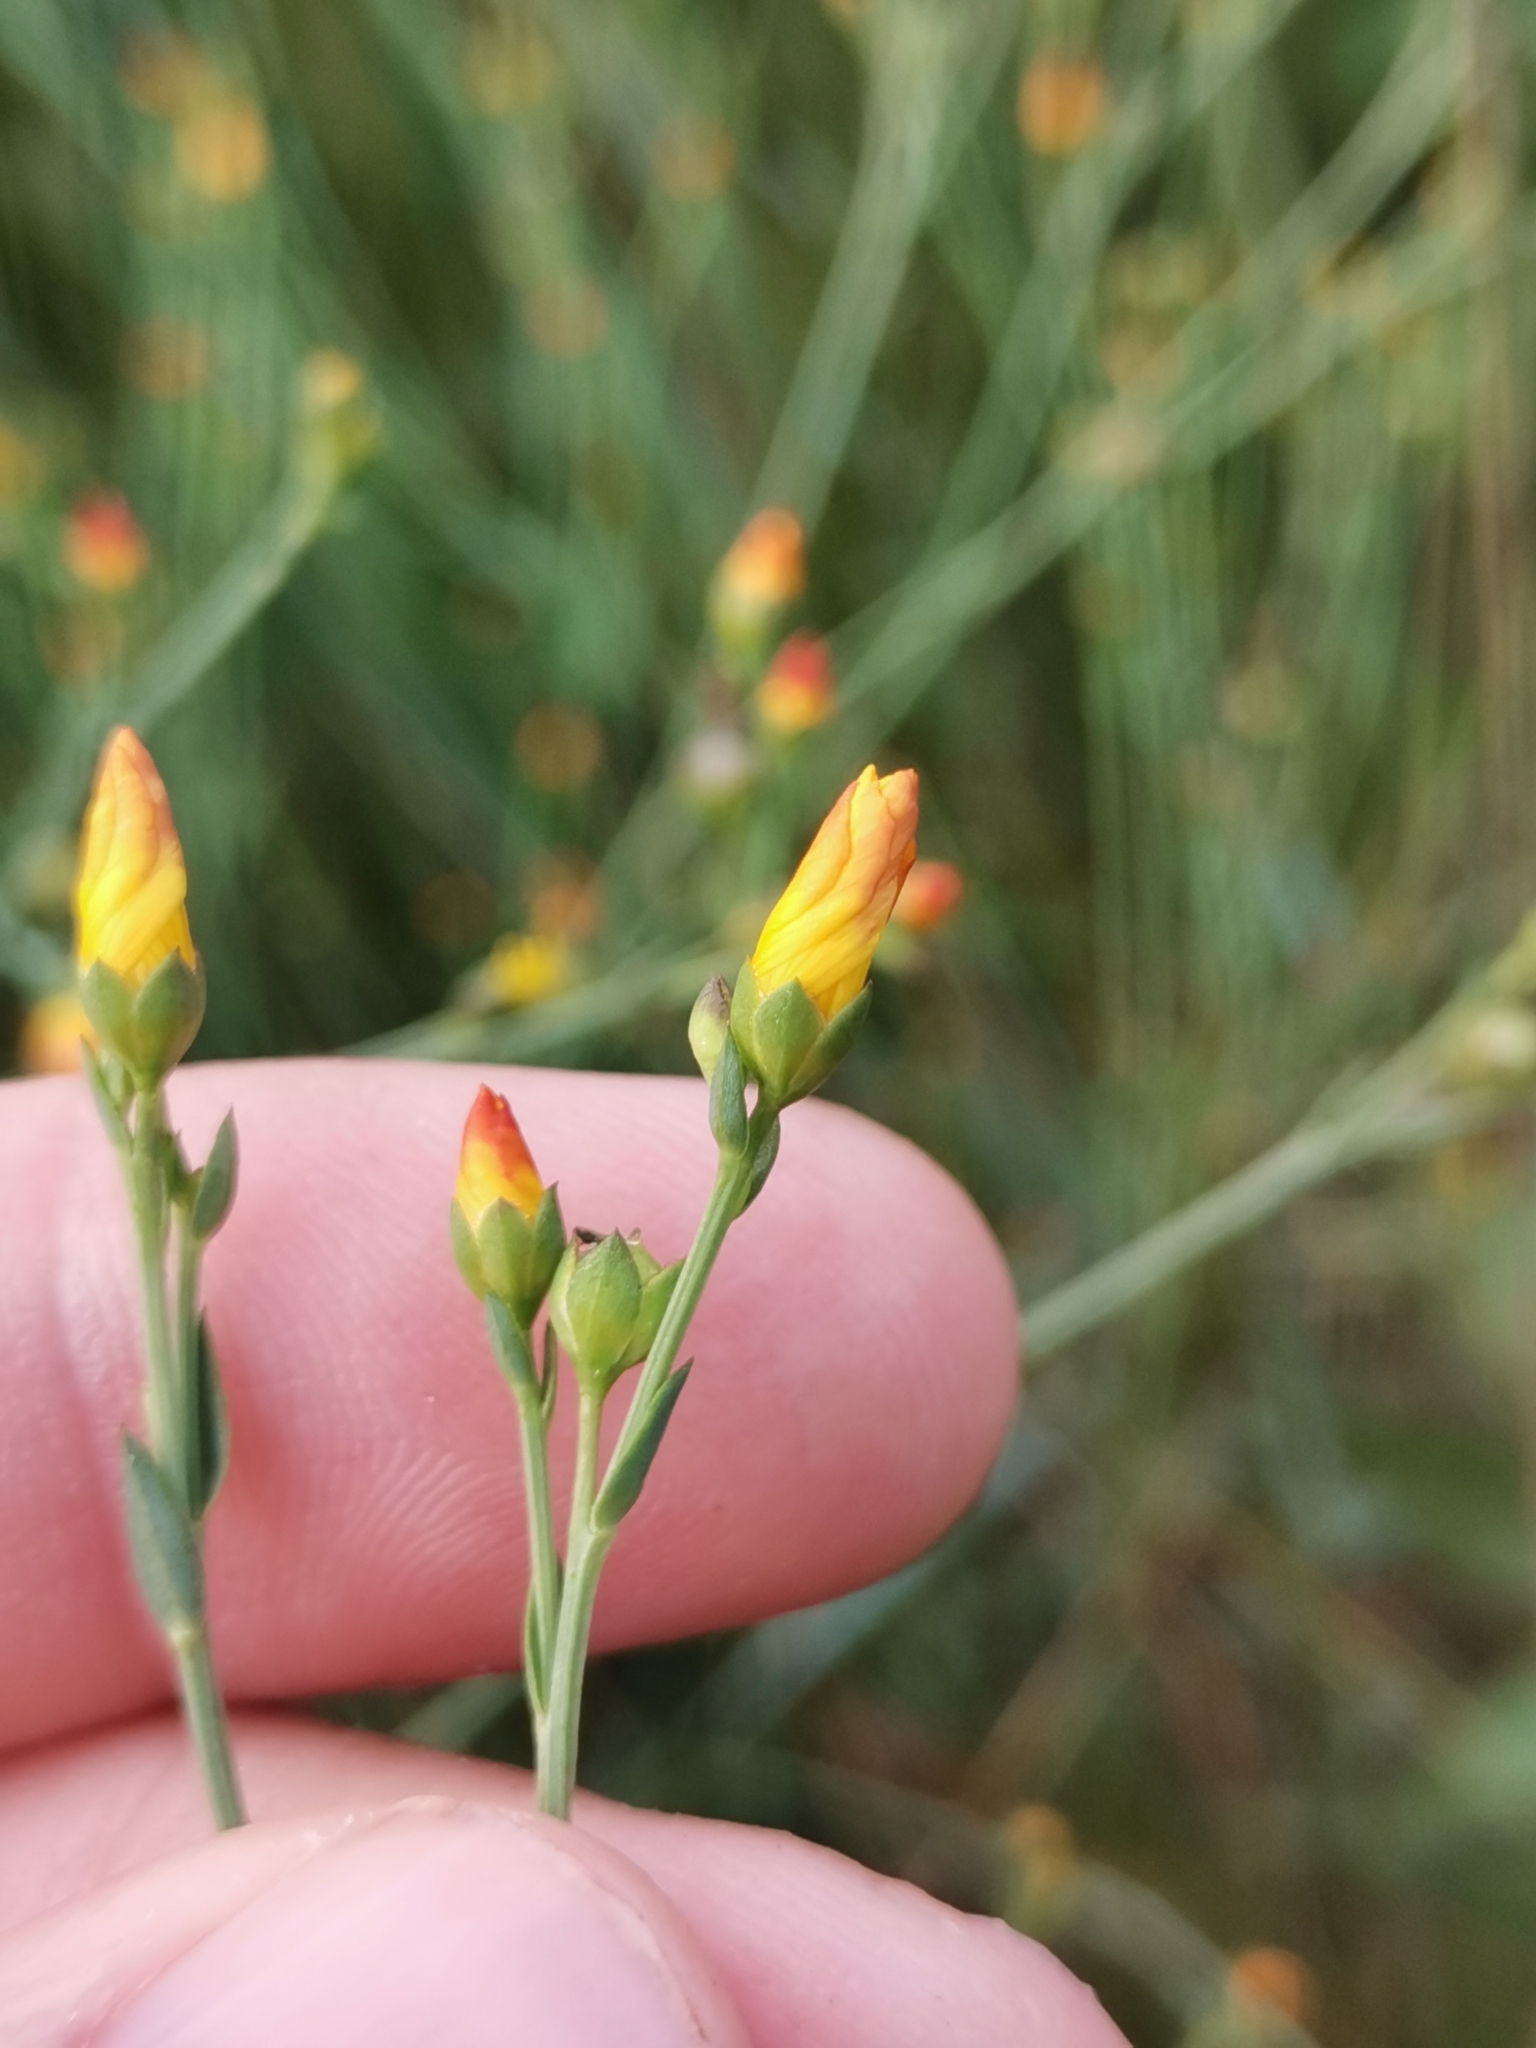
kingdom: Plantae
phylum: Tracheophyta
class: Magnoliopsida
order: Malpighiales
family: Linaceae
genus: Linum
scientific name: Linum maritimum
